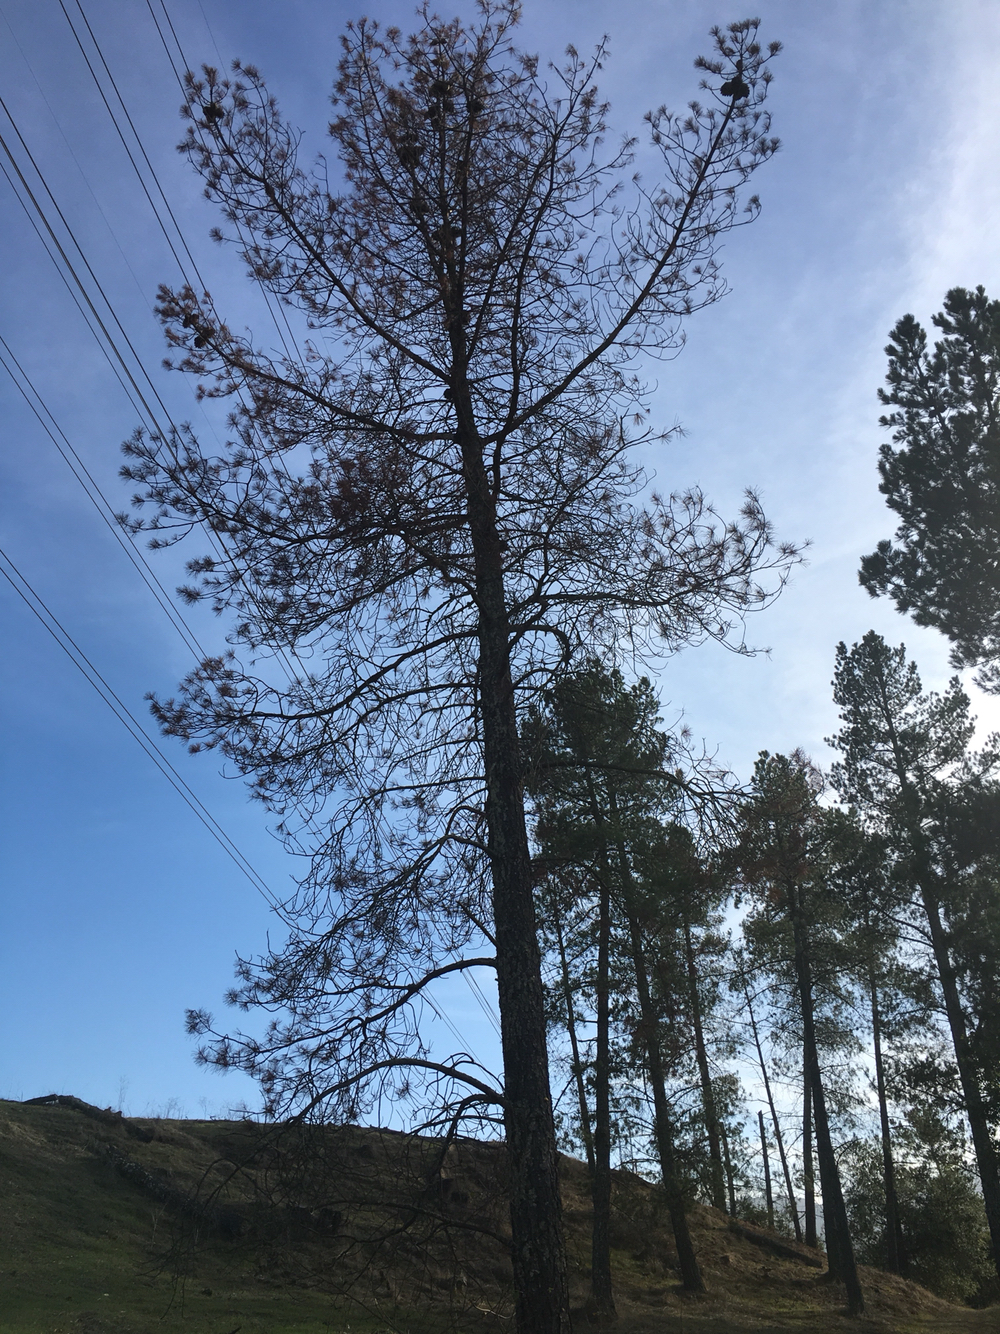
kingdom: Fungi
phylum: Basidiomycota
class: Agaricomycetes
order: Polyporales
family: Polyporaceae
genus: Cryptoporus
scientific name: Cryptoporus volvatus
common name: Veiled polypore
